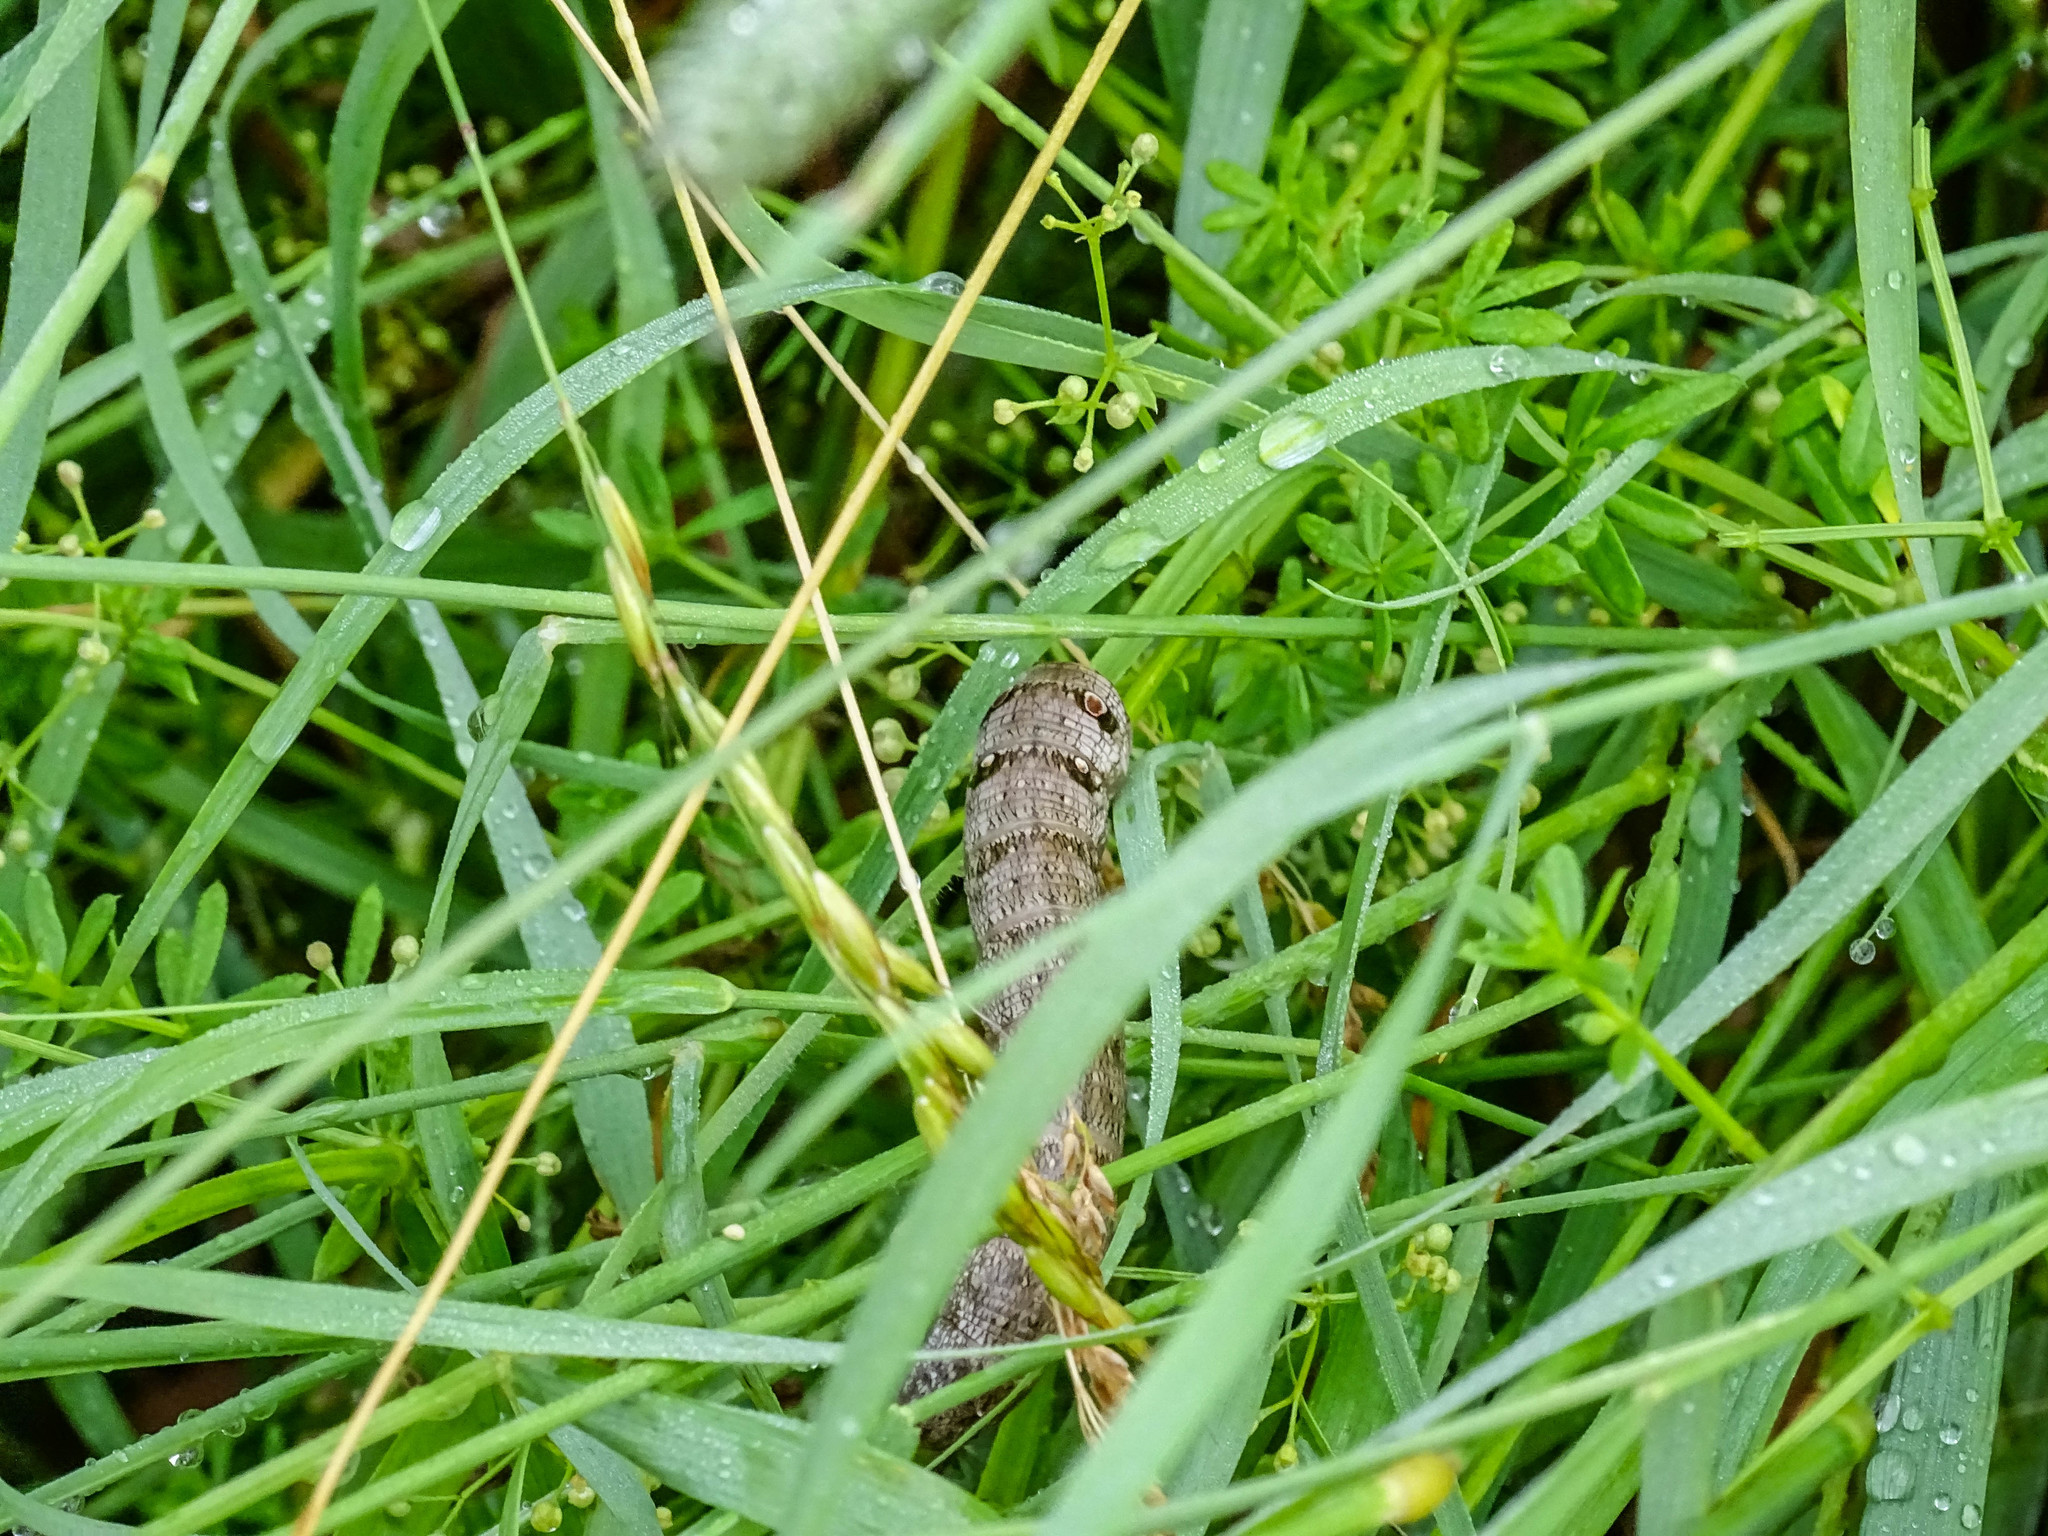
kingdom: Animalia
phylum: Arthropoda
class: Insecta
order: Lepidoptera
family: Sphingidae
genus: Deilephila
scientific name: Deilephila porcellus
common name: Small elephant hawk-moth
